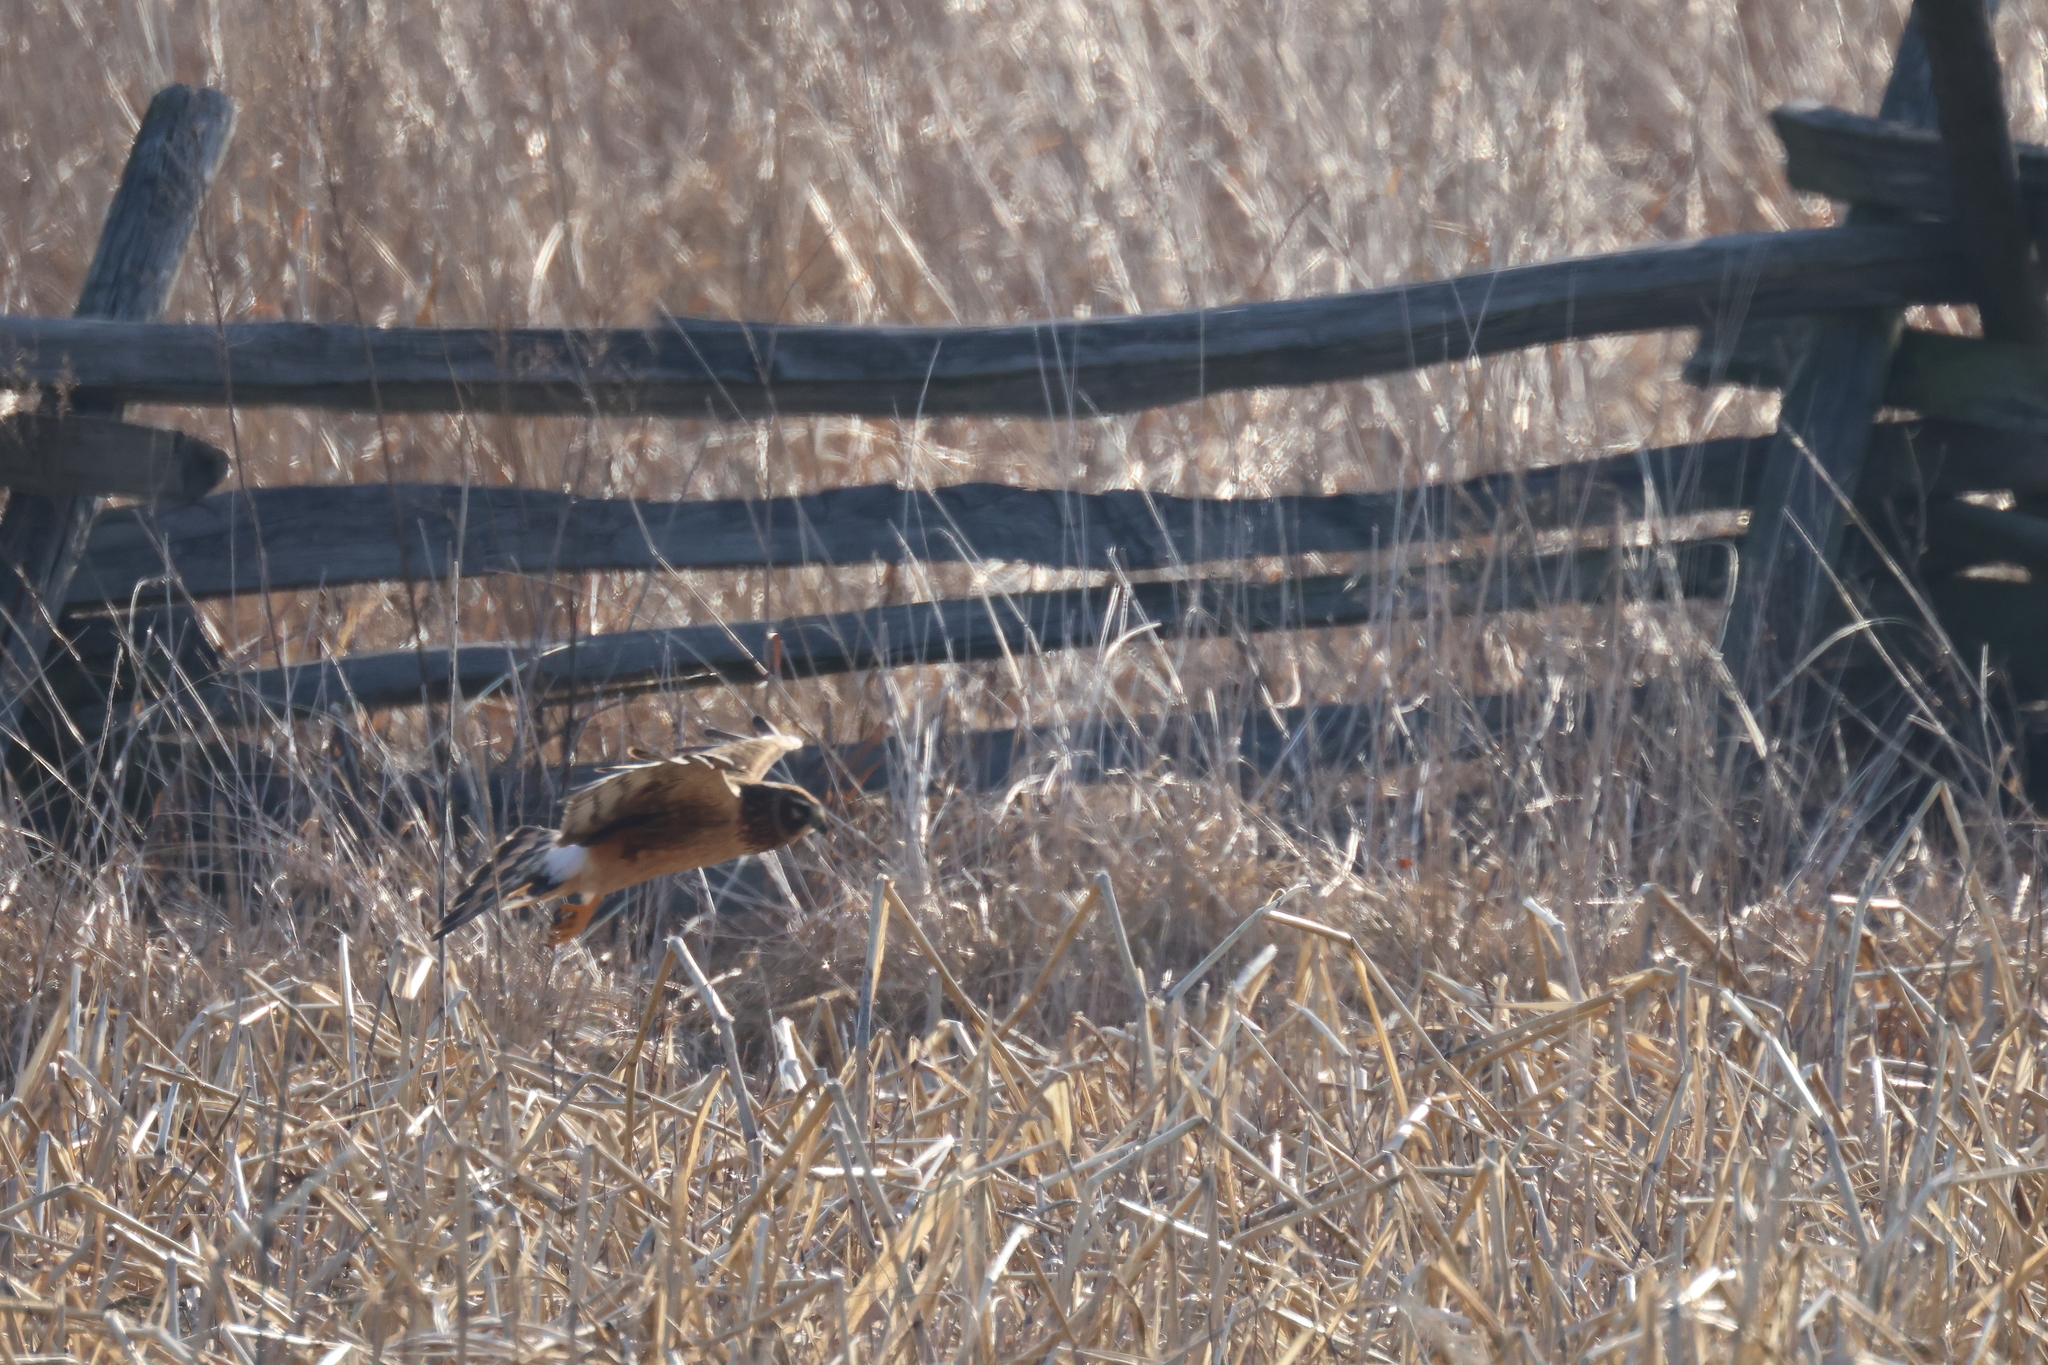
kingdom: Animalia
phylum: Chordata
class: Aves
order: Accipitriformes
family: Accipitridae
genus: Circus
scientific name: Circus cyaneus
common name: Hen harrier
